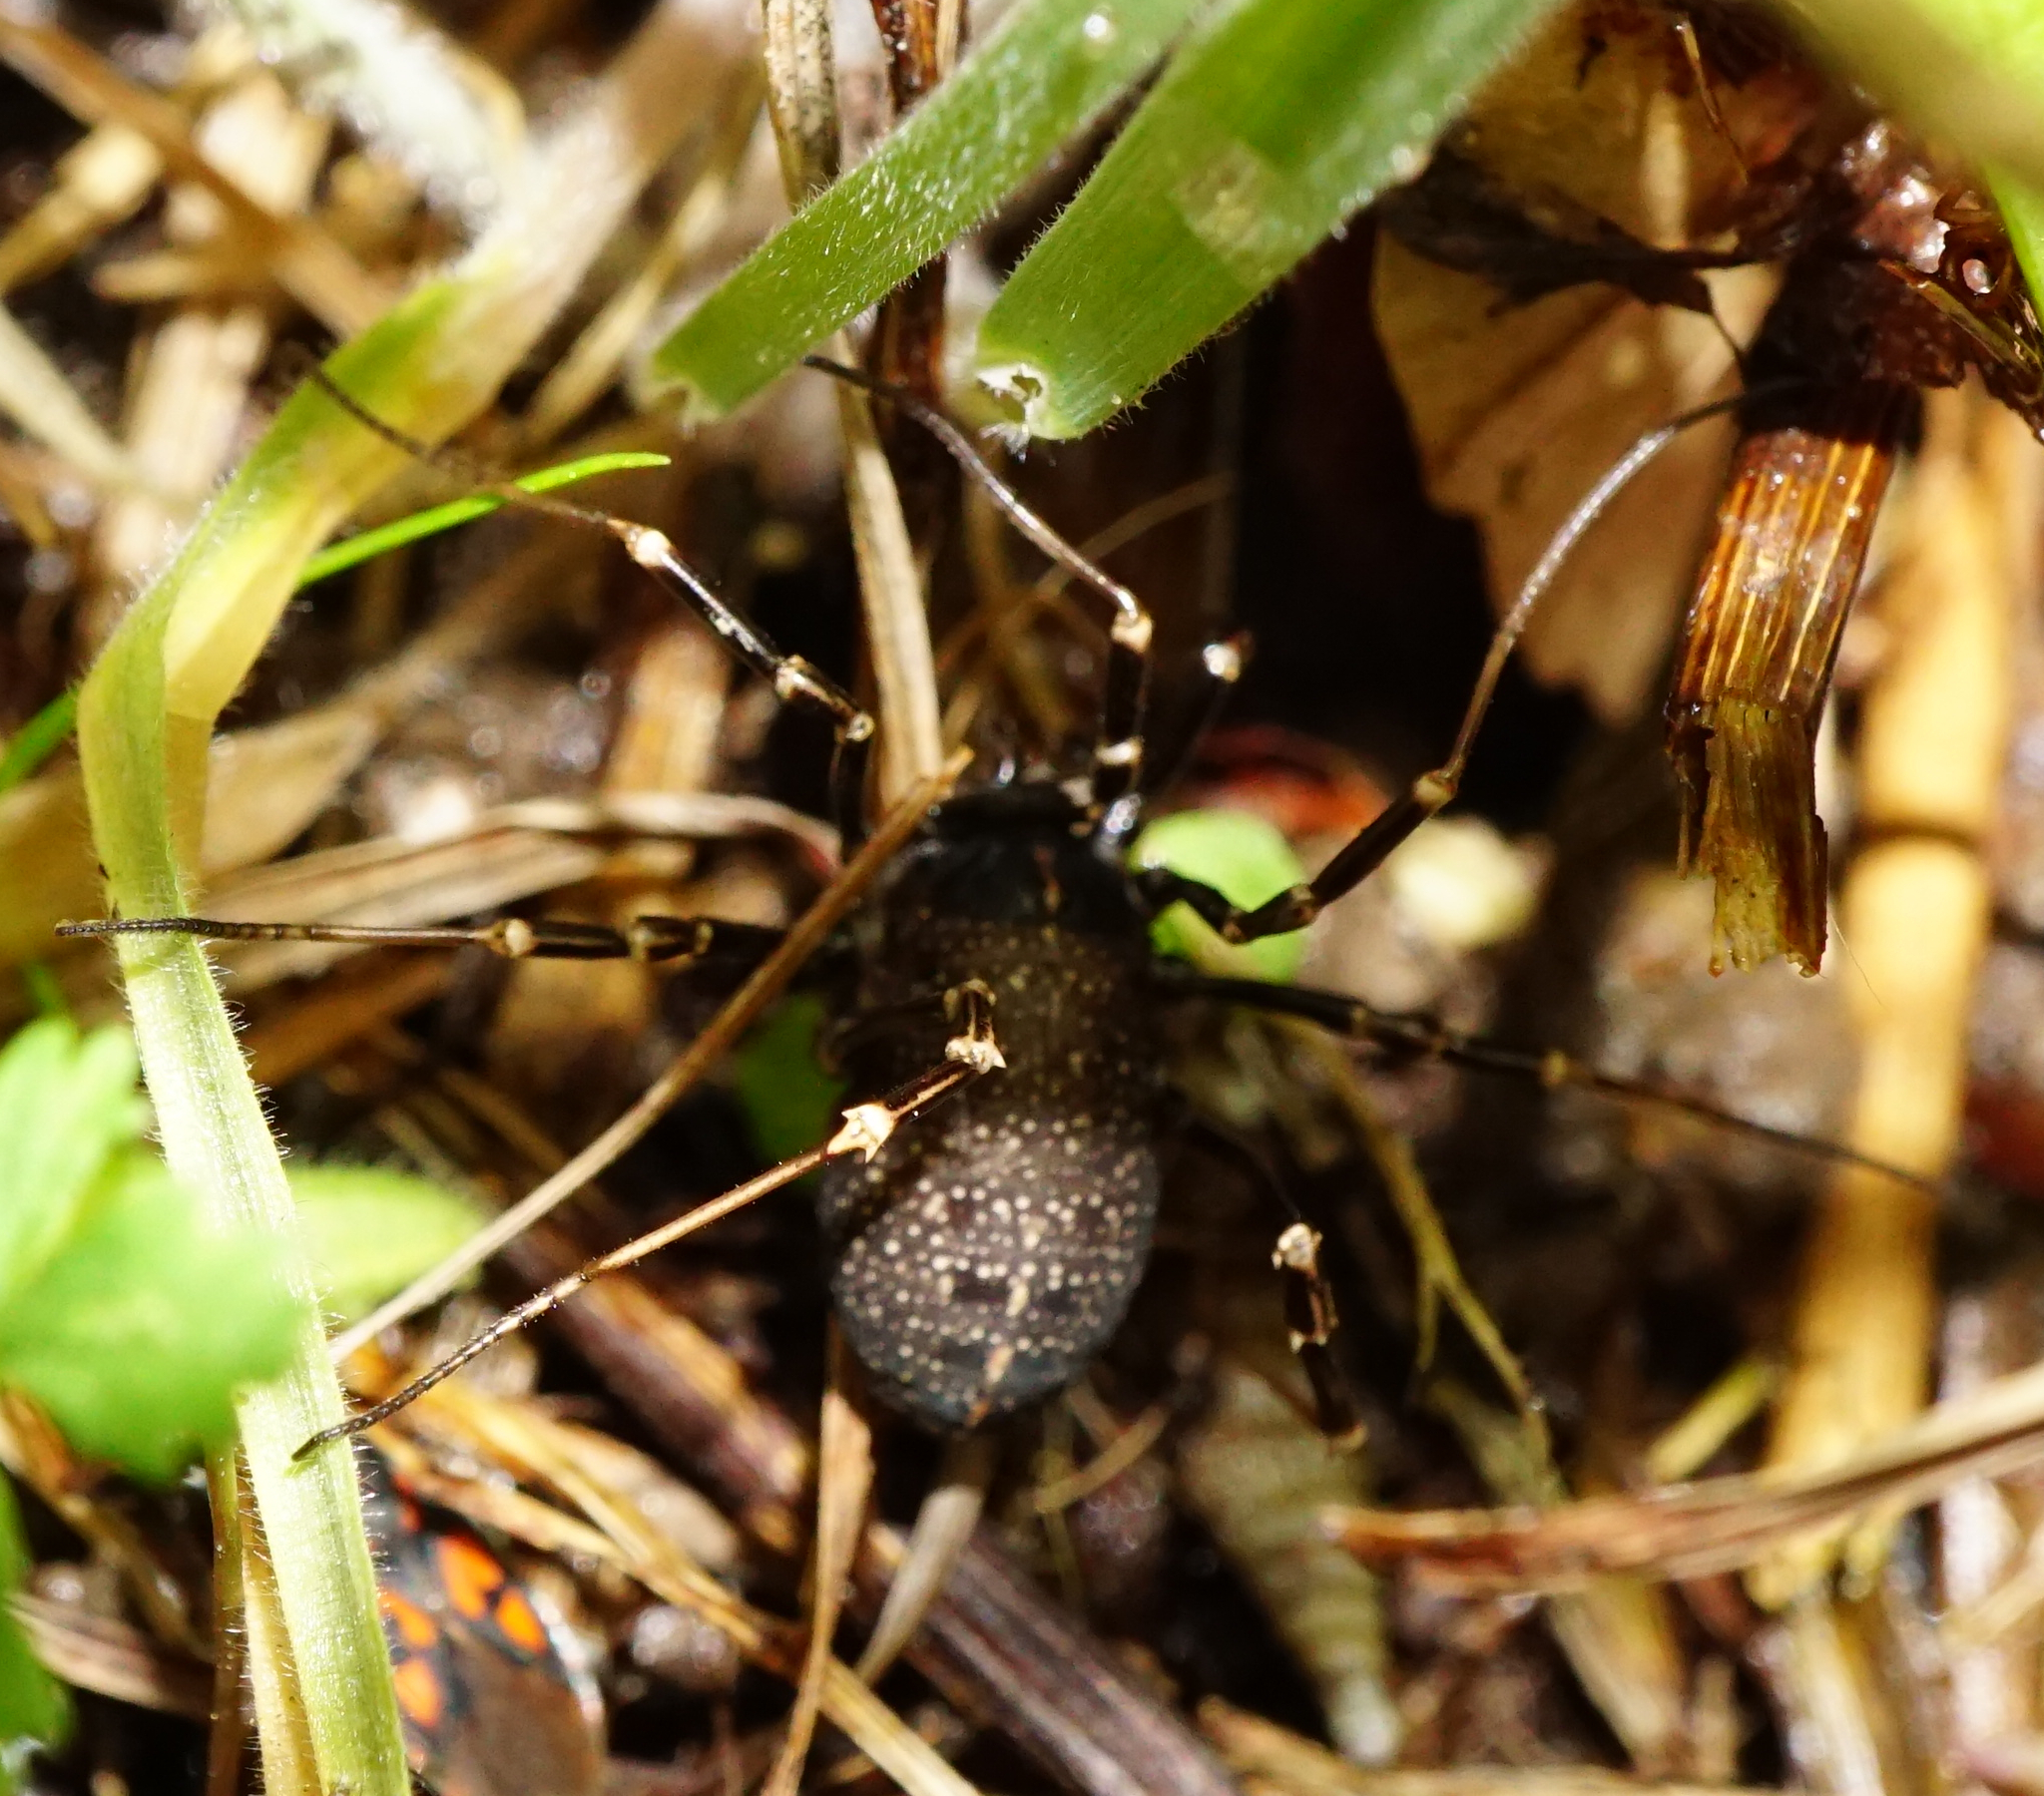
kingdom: Animalia
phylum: Arthropoda
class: Arachnida
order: Opiliones
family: Phalangiidae
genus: Egaenus
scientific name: Egaenus convexus
